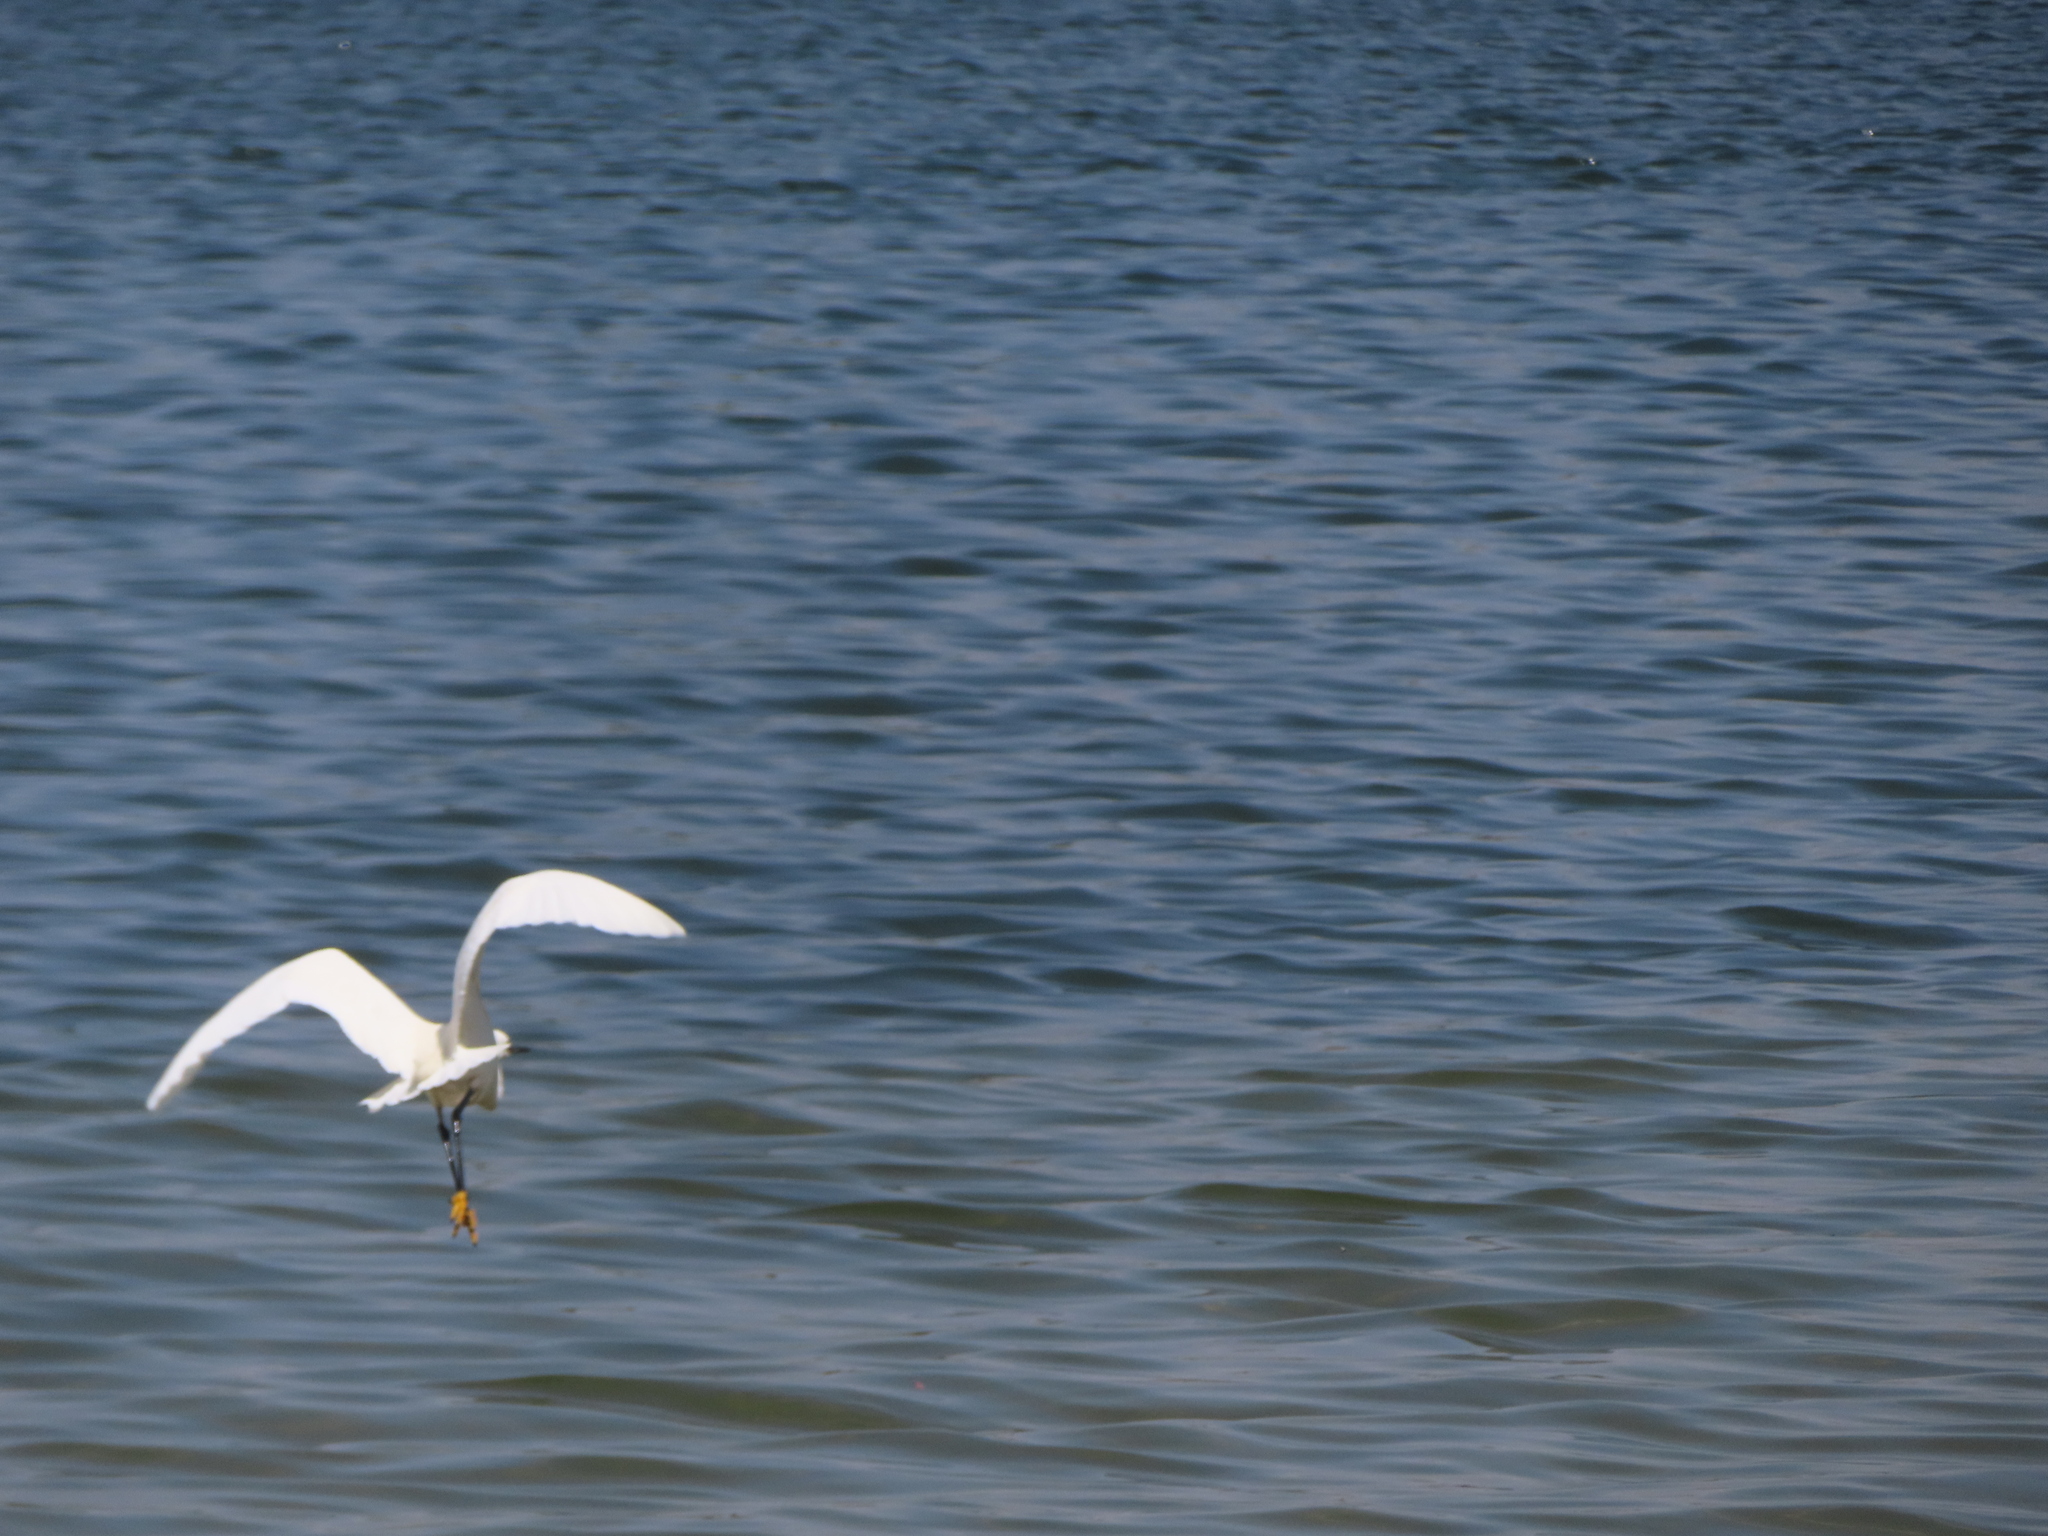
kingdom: Animalia
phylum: Chordata
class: Aves
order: Pelecaniformes
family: Ardeidae
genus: Egretta
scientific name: Egretta thula
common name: Snowy egret
